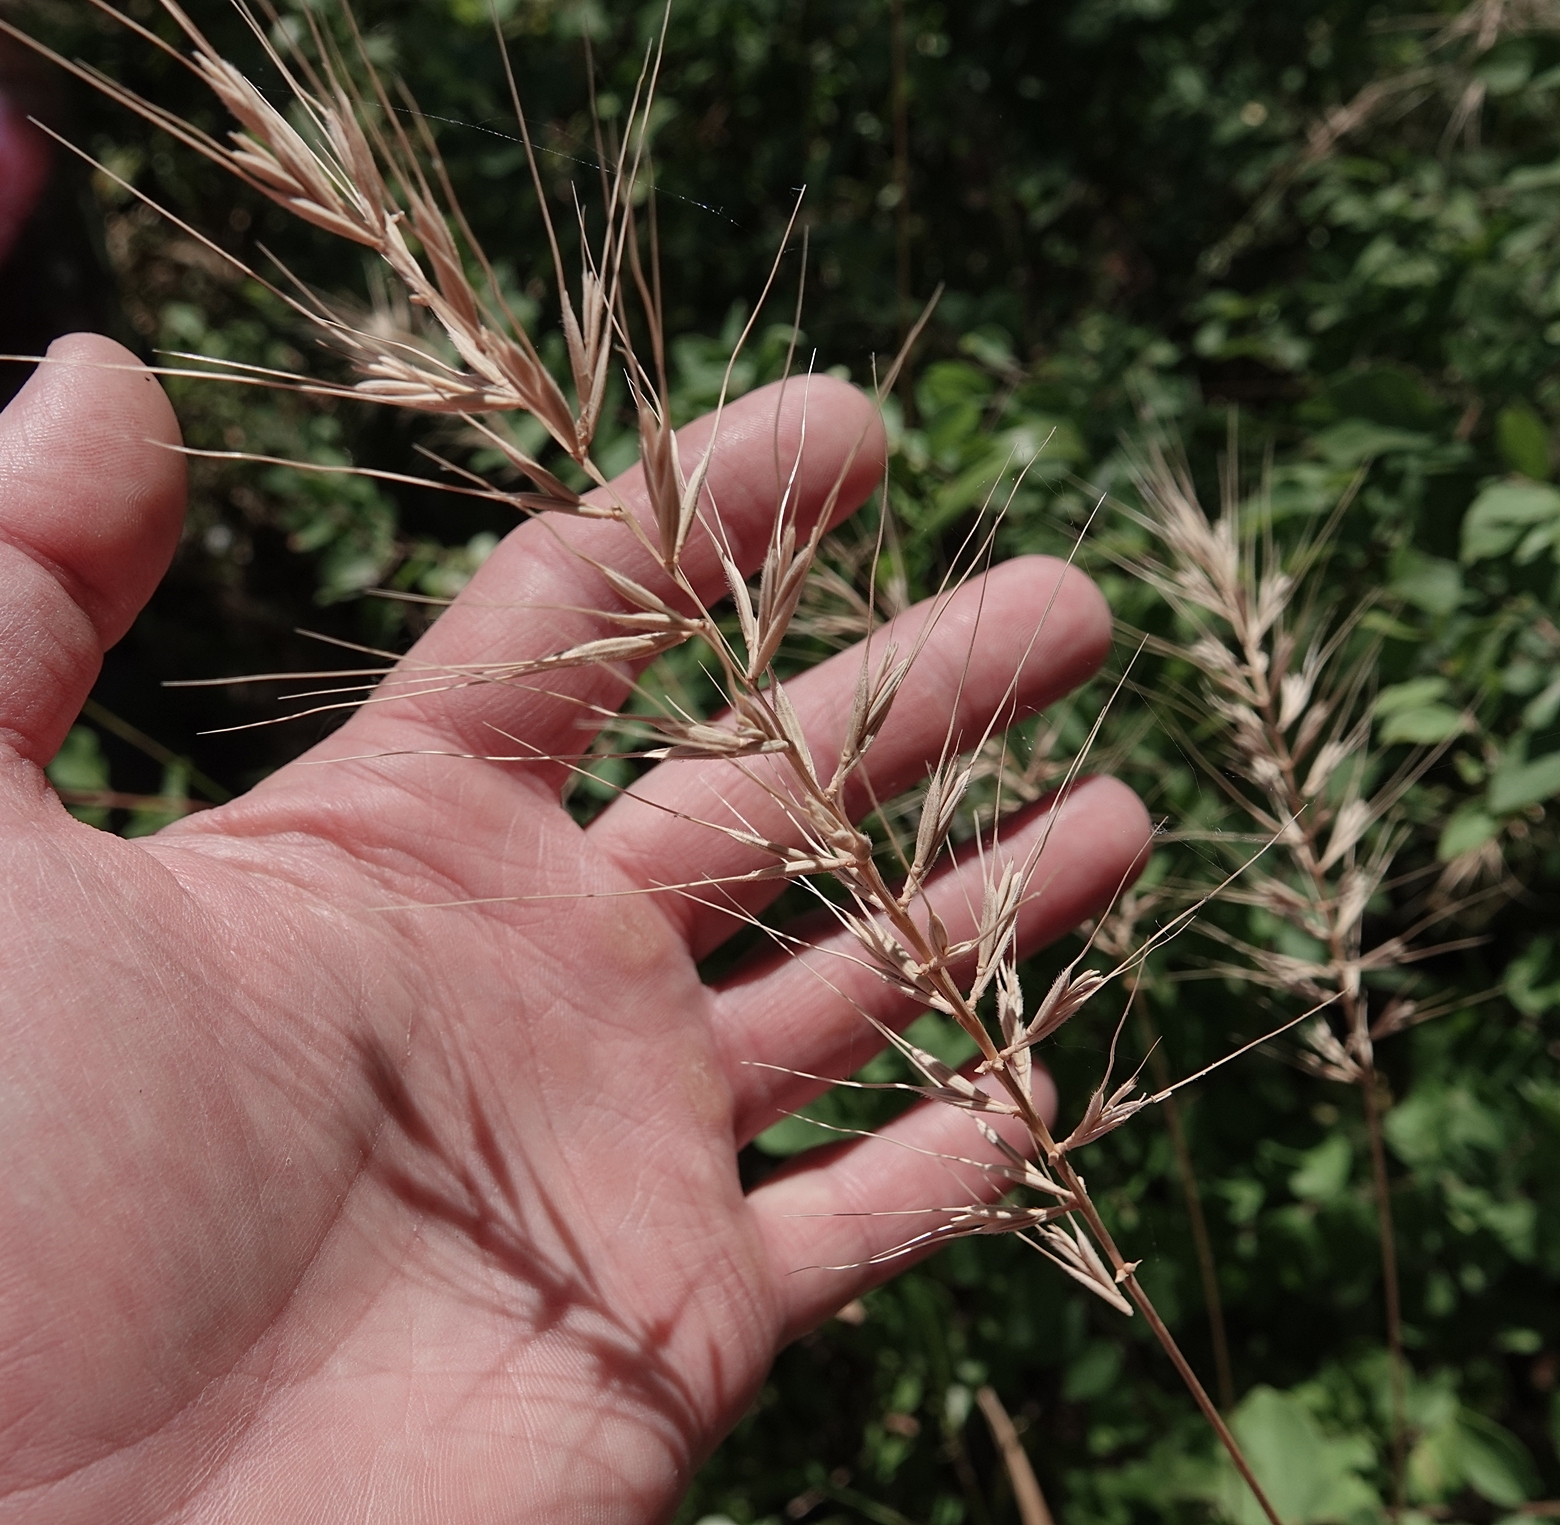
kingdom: Plantae
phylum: Tracheophyta
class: Liliopsida
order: Poales
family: Poaceae
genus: Elymus
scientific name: Elymus hystrix
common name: Bottlebrush grass
